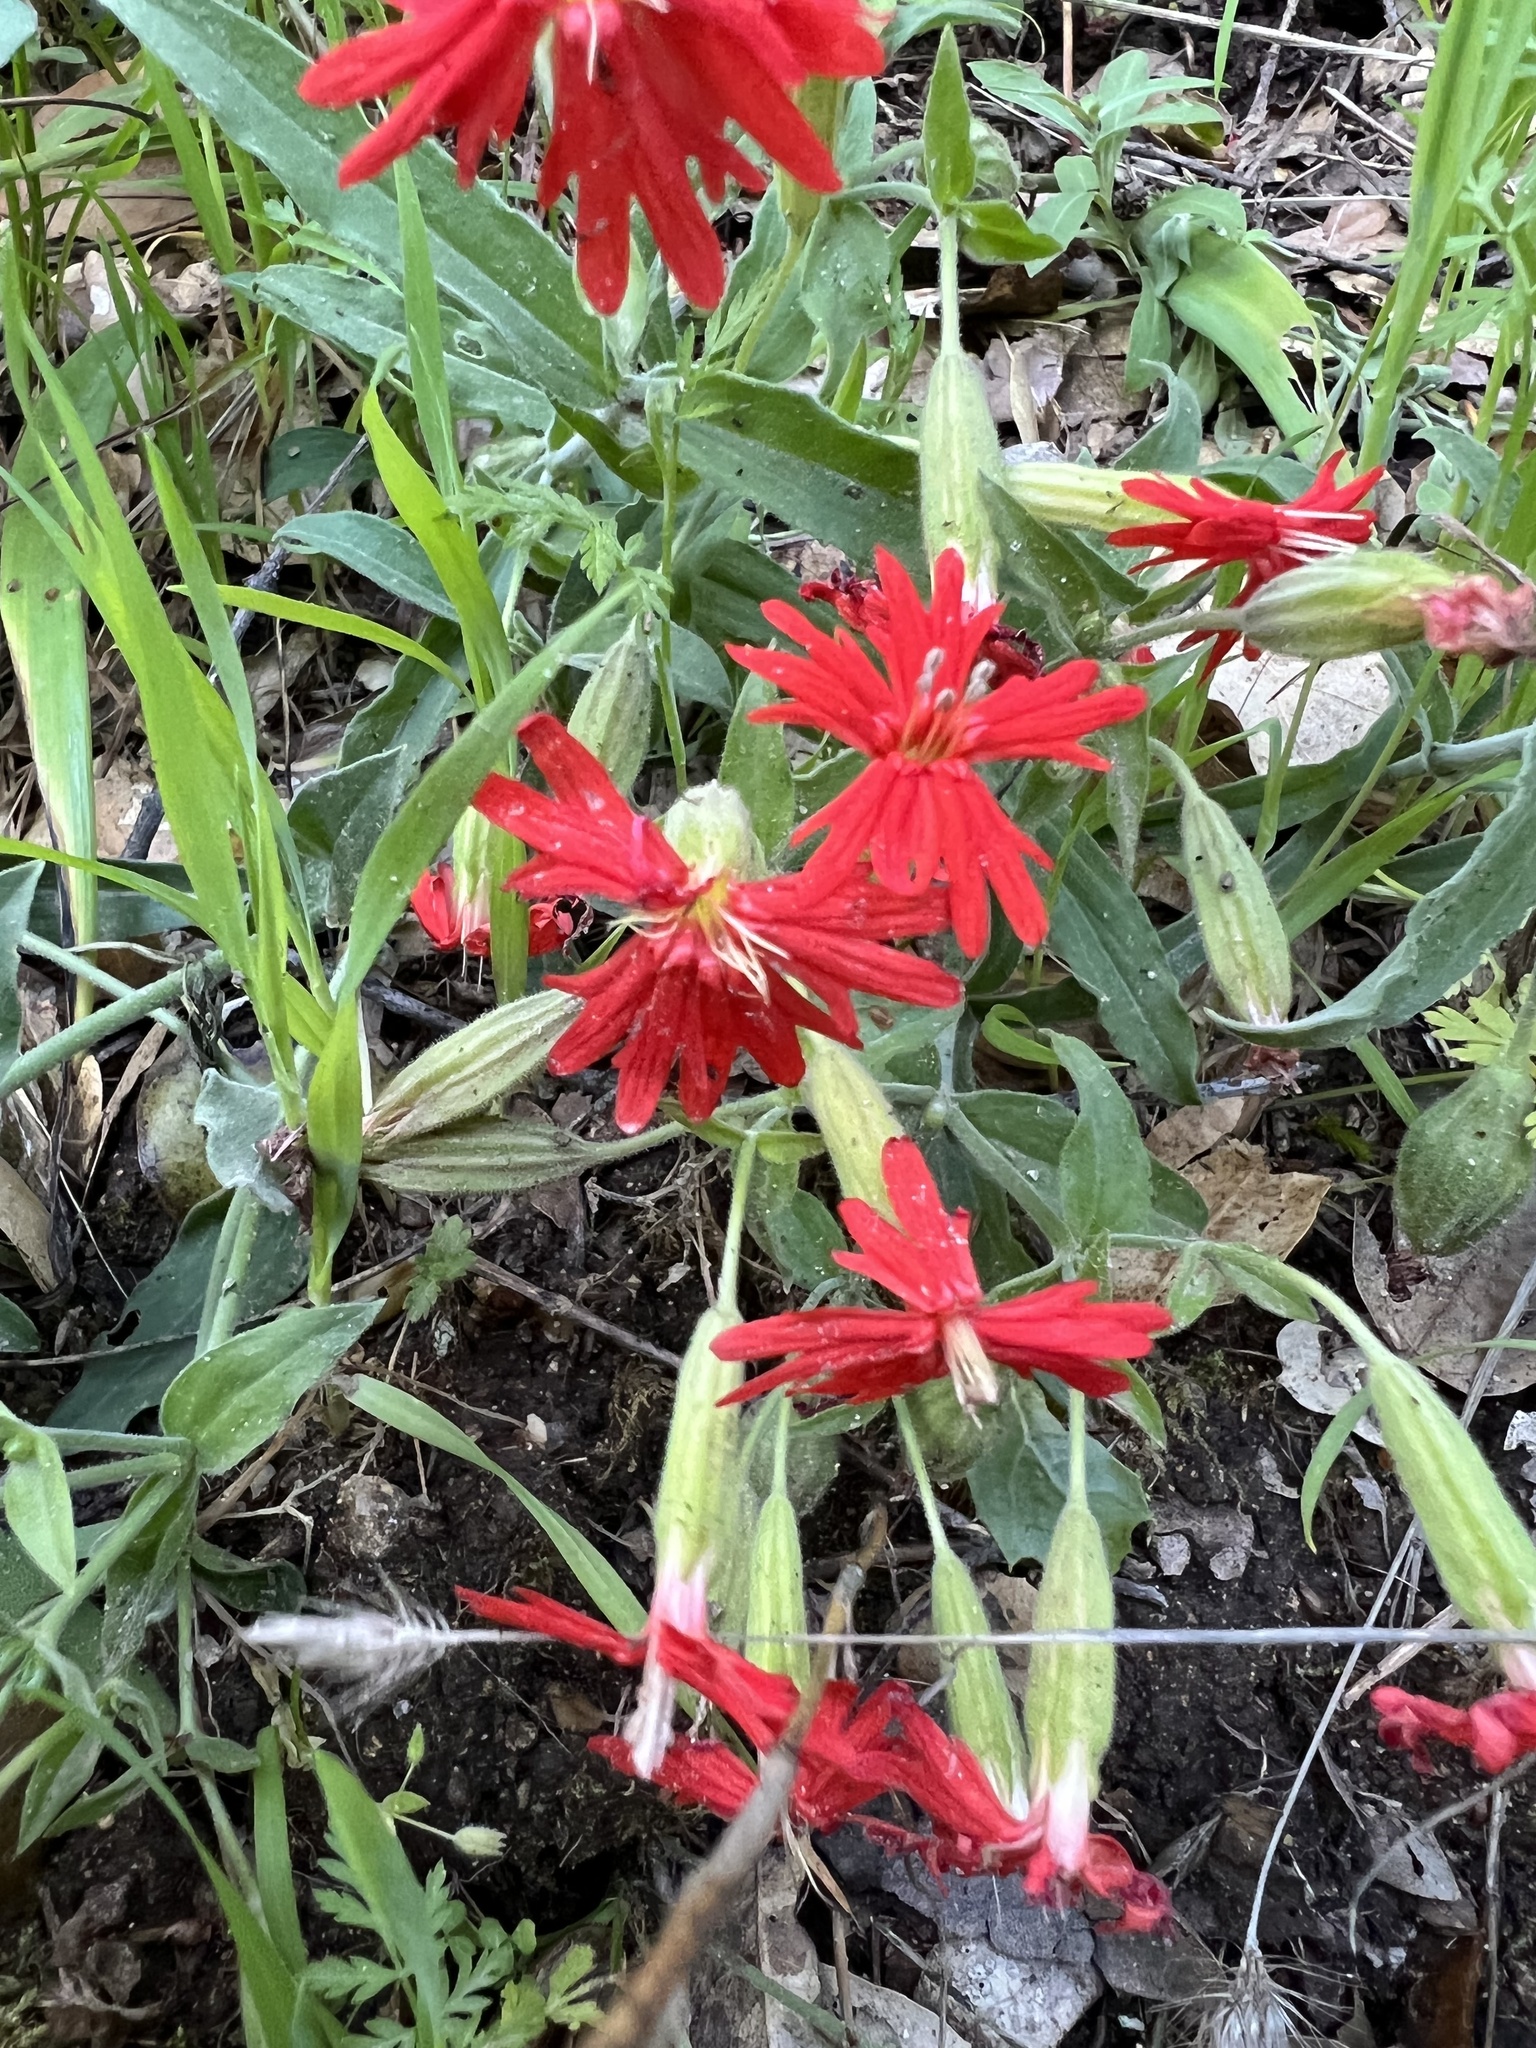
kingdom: Plantae
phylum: Tracheophyta
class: Magnoliopsida
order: Caryophyllales
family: Caryophyllaceae
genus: Silene
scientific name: Silene laciniata
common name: Indian-pink
